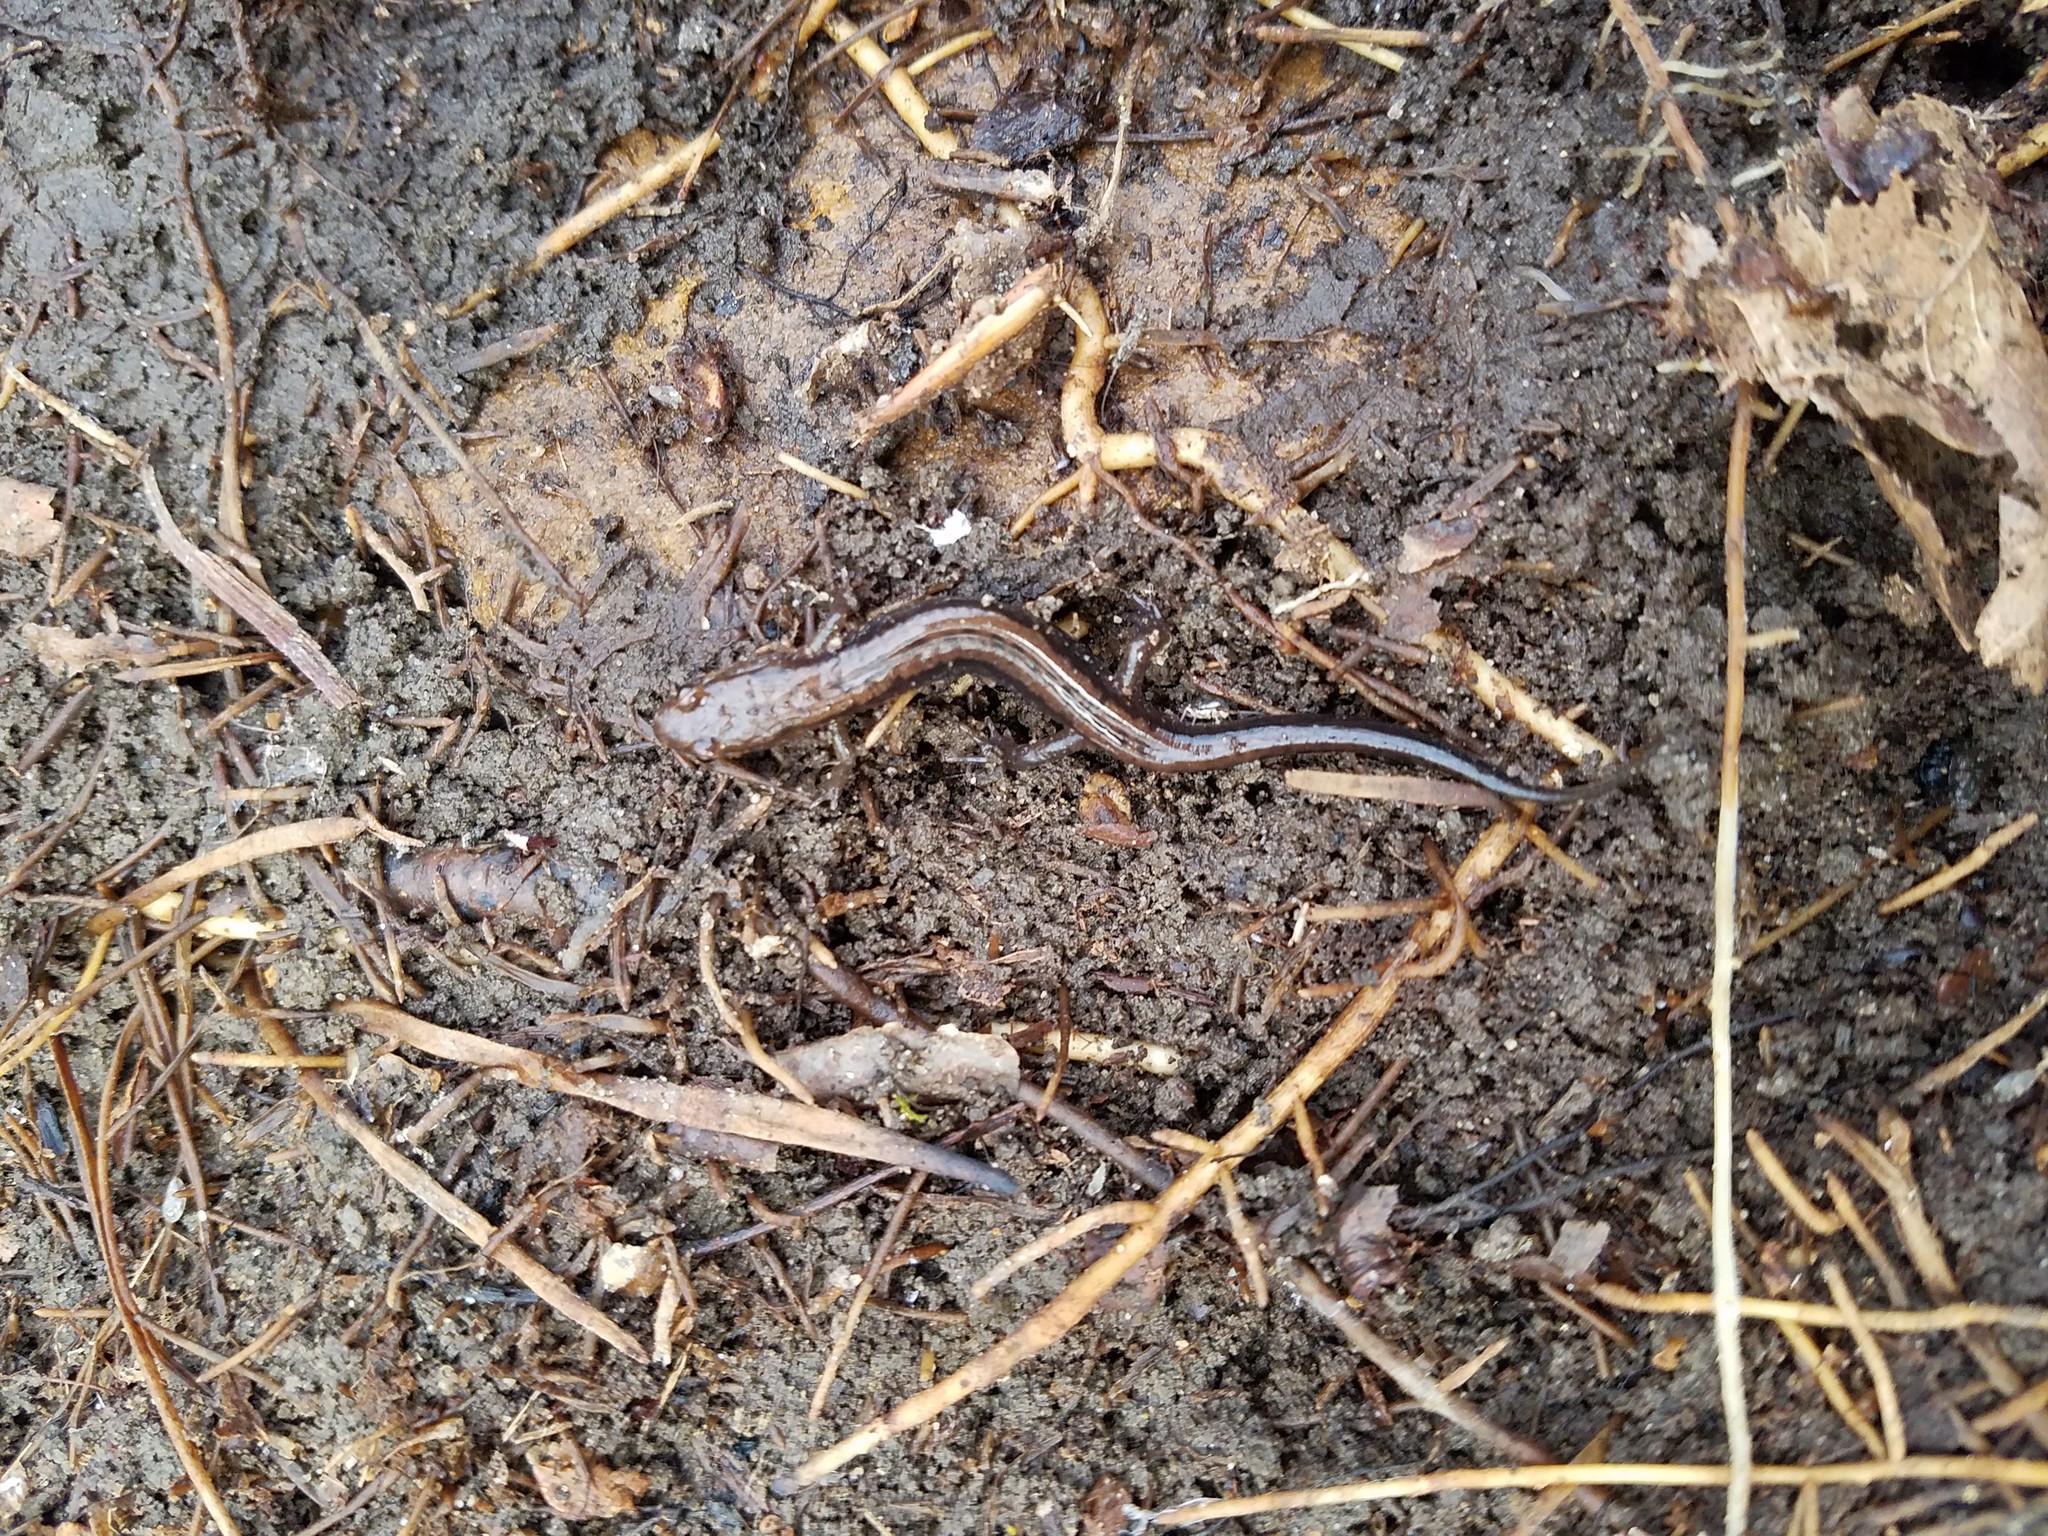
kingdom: Animalia
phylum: Chordata
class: Amphibia
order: Caudata
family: Plethodontidae
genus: Desmognathus
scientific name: Desmognathus ochrophaeus
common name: Allegheny mountain dusky salamander
